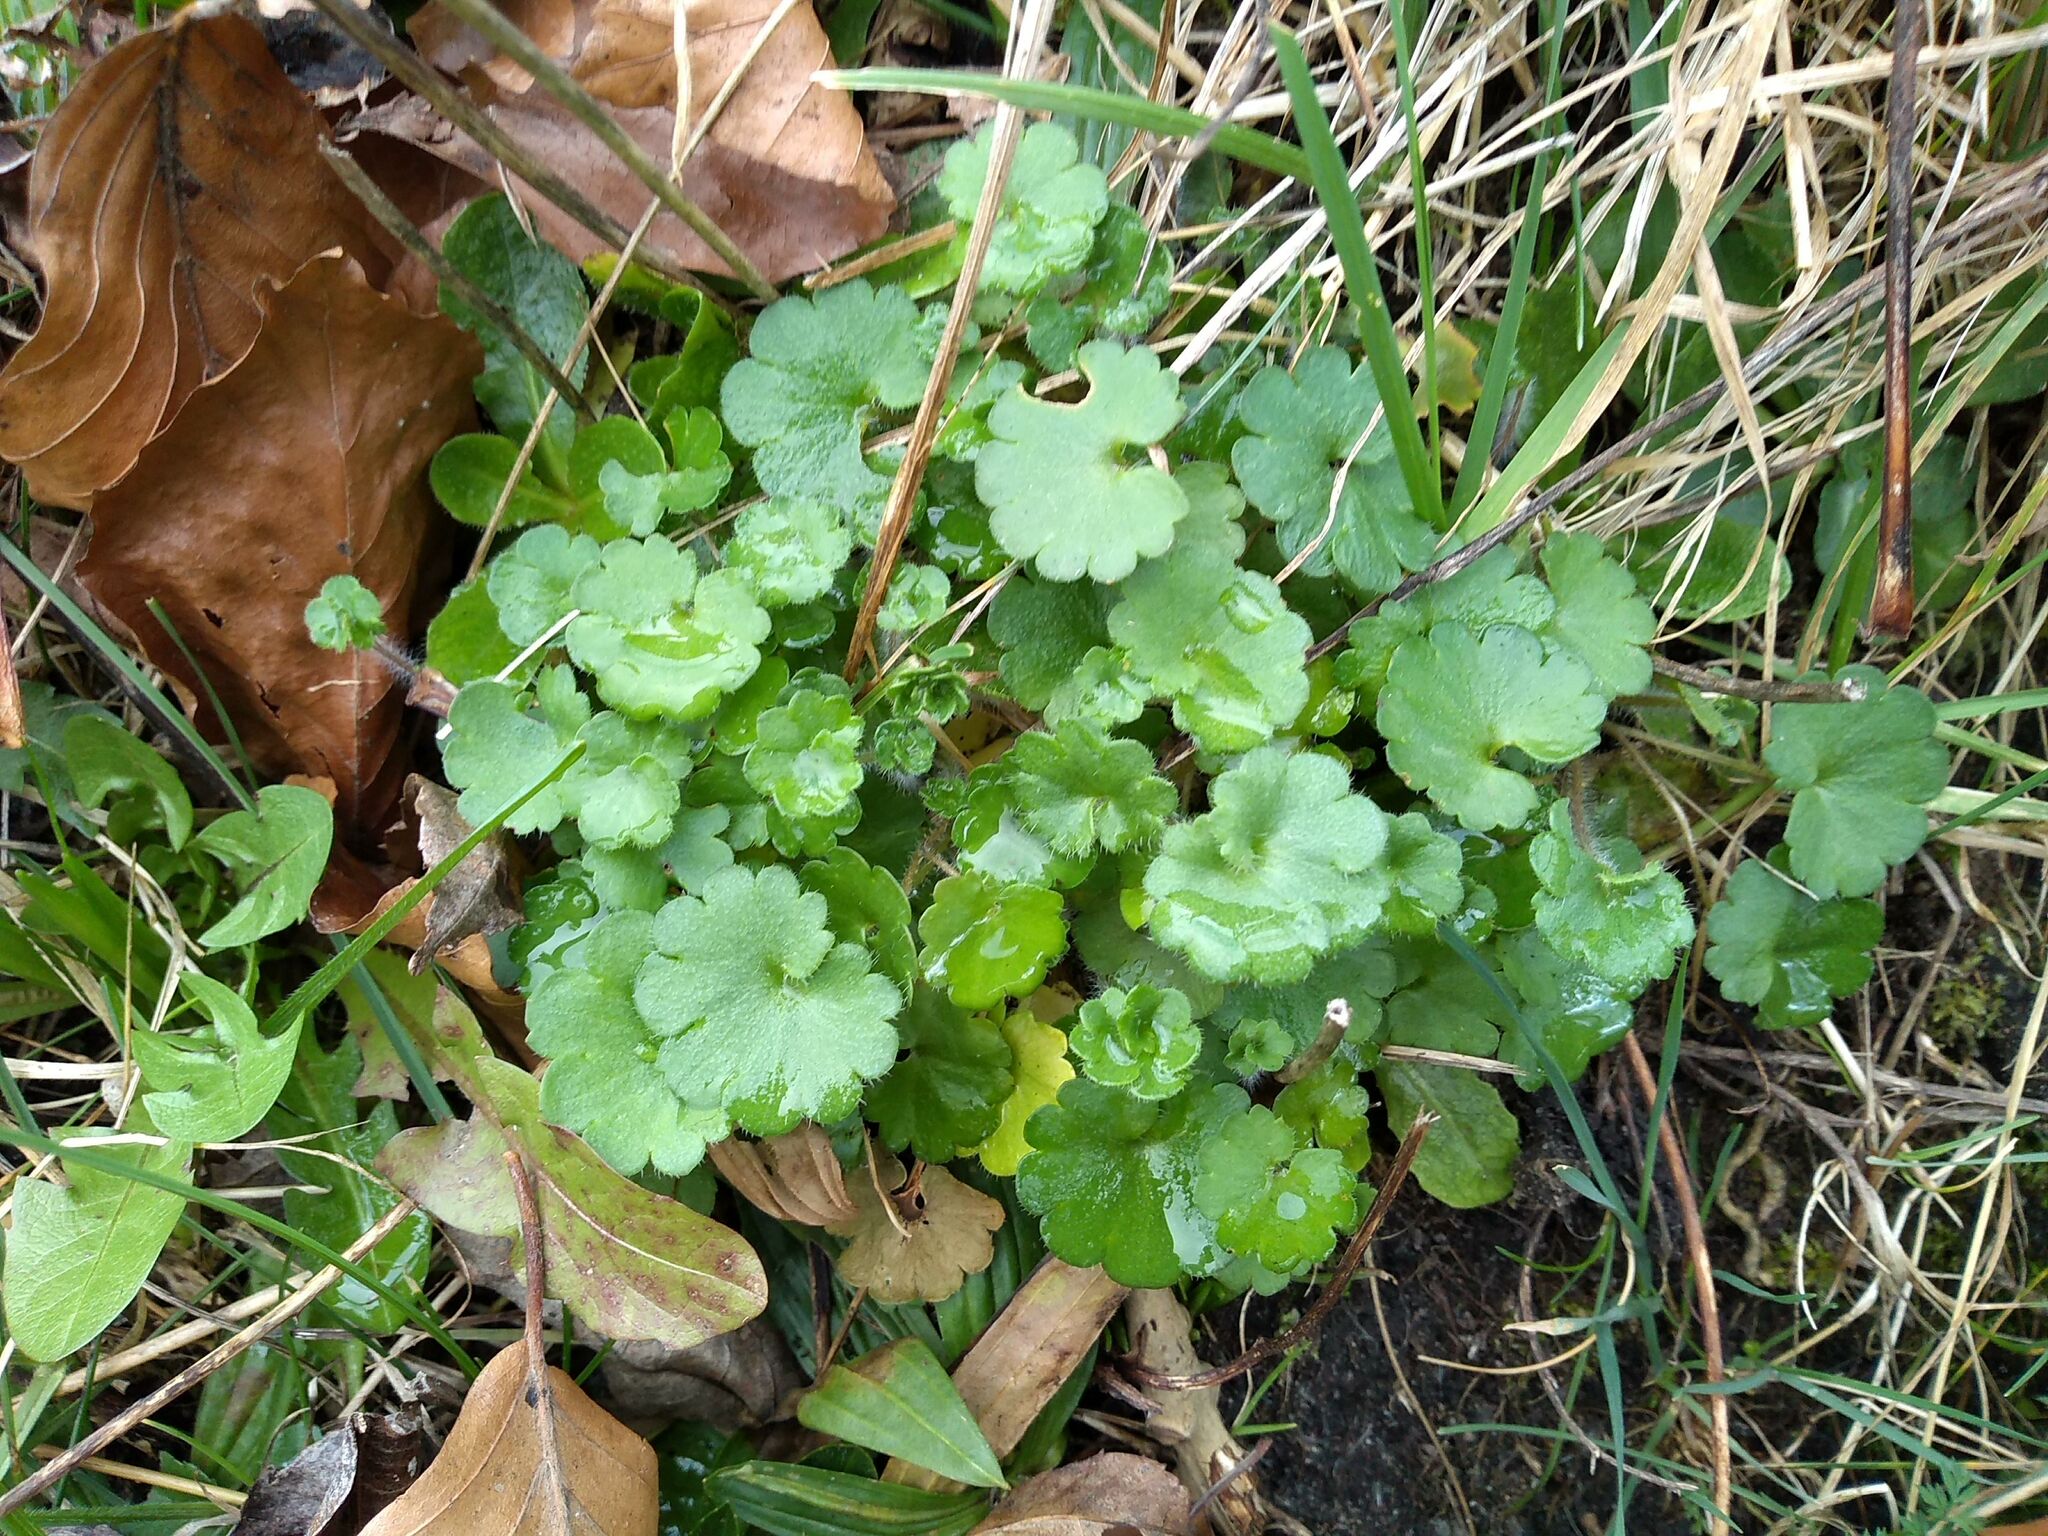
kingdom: Plantae
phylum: Tracheophyta
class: Magnoliopsida
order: Saxifragales
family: Saxifragaceae
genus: Saxifraga
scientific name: Saxifraga granulata
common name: Meadow saxifrage
